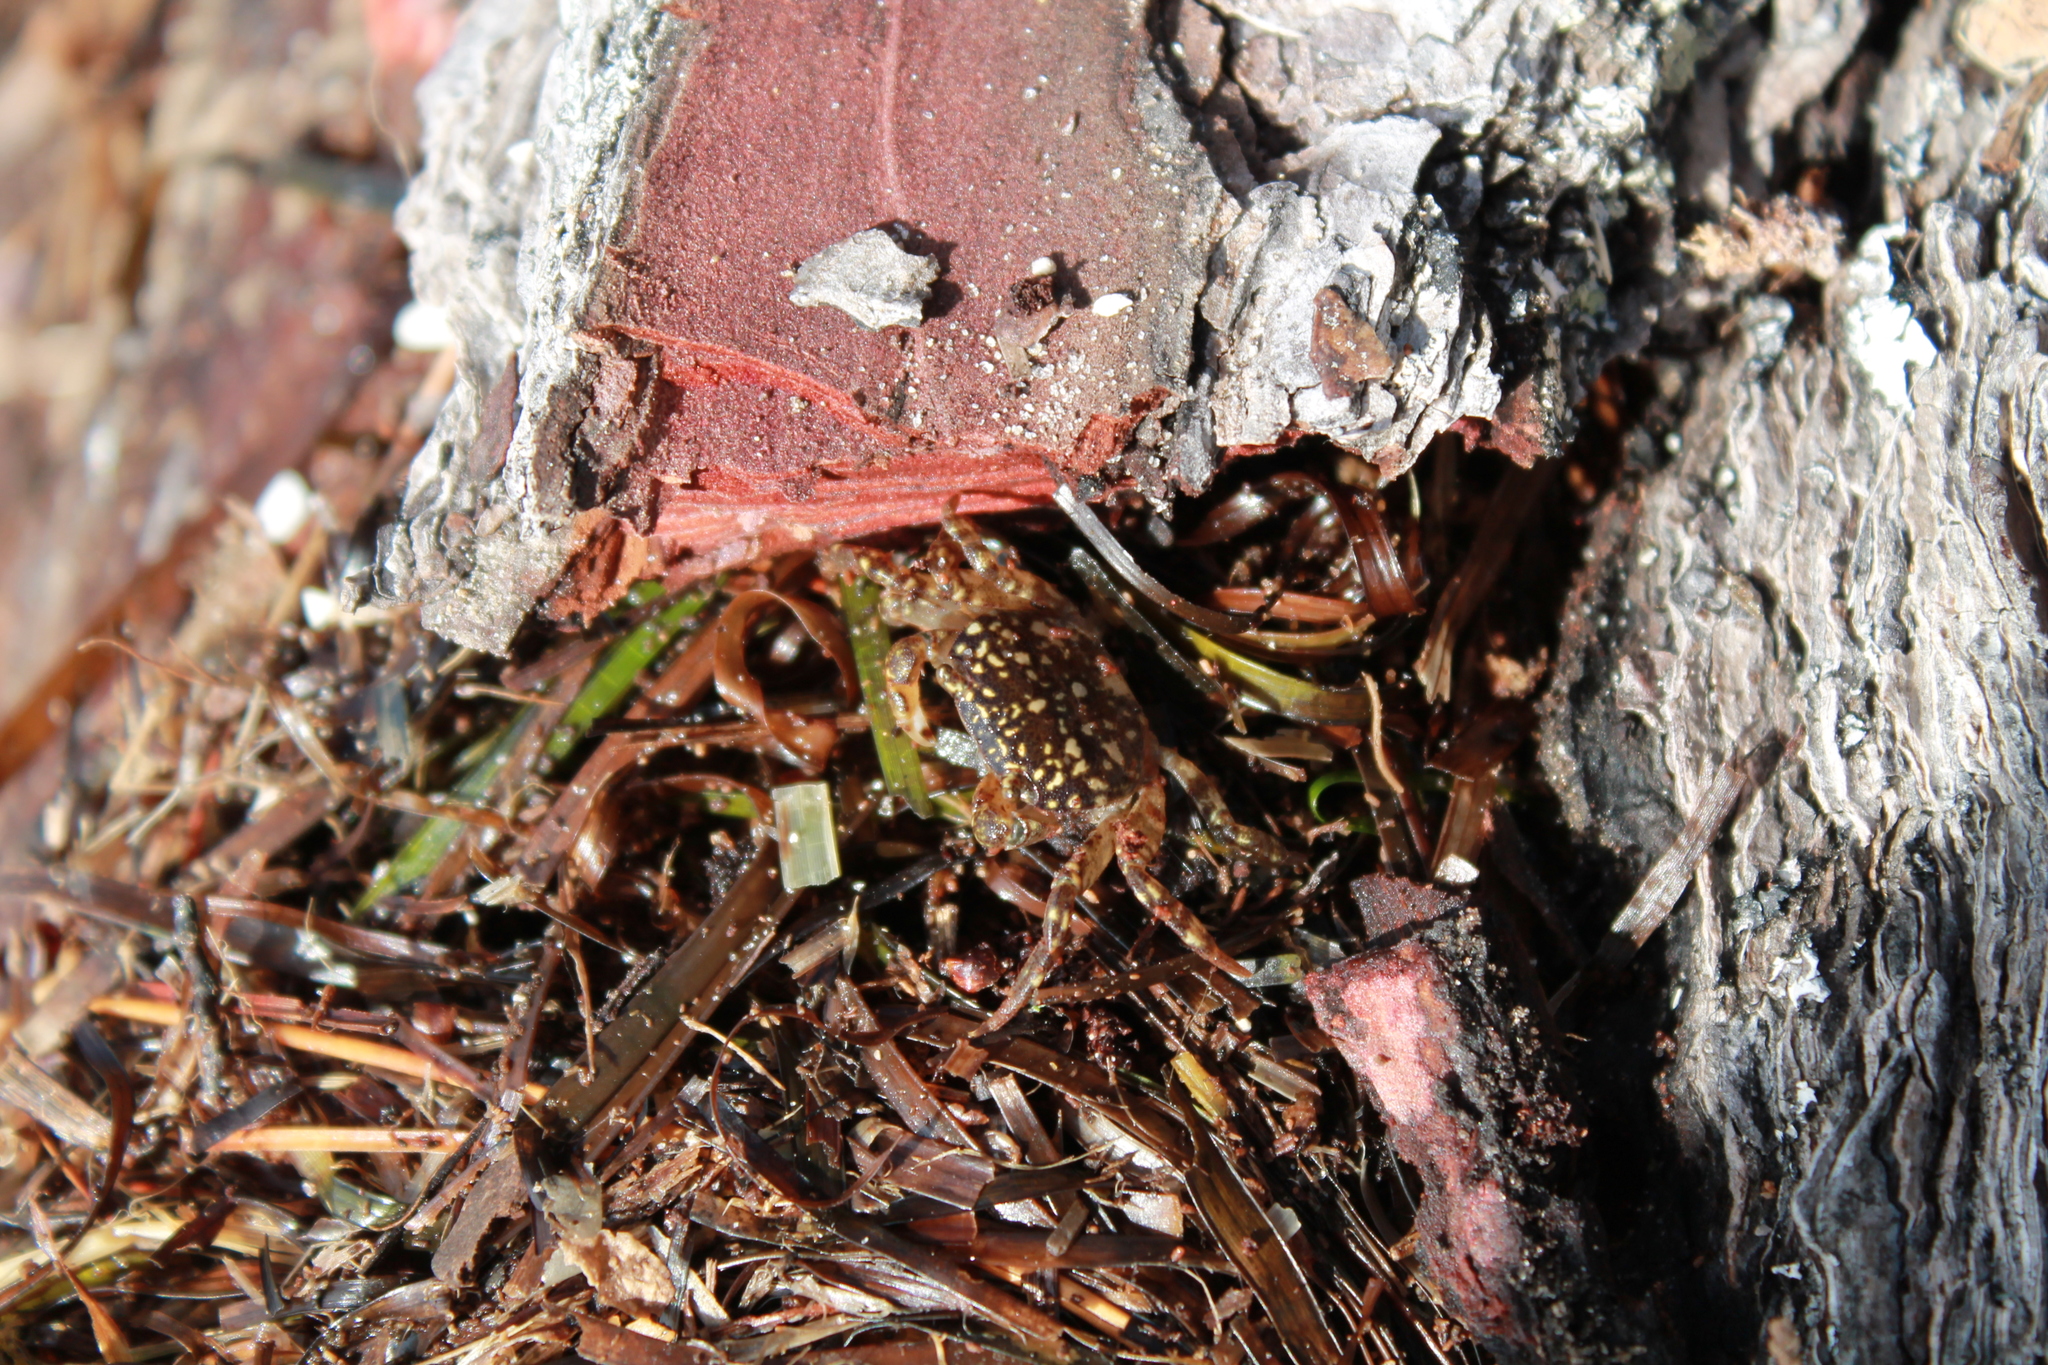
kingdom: Animalia
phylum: Arthropoda
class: Malacostraca
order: Decapoda
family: Varunidae
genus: Cyclograpsus
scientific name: Cyclograpsus lavauxi
